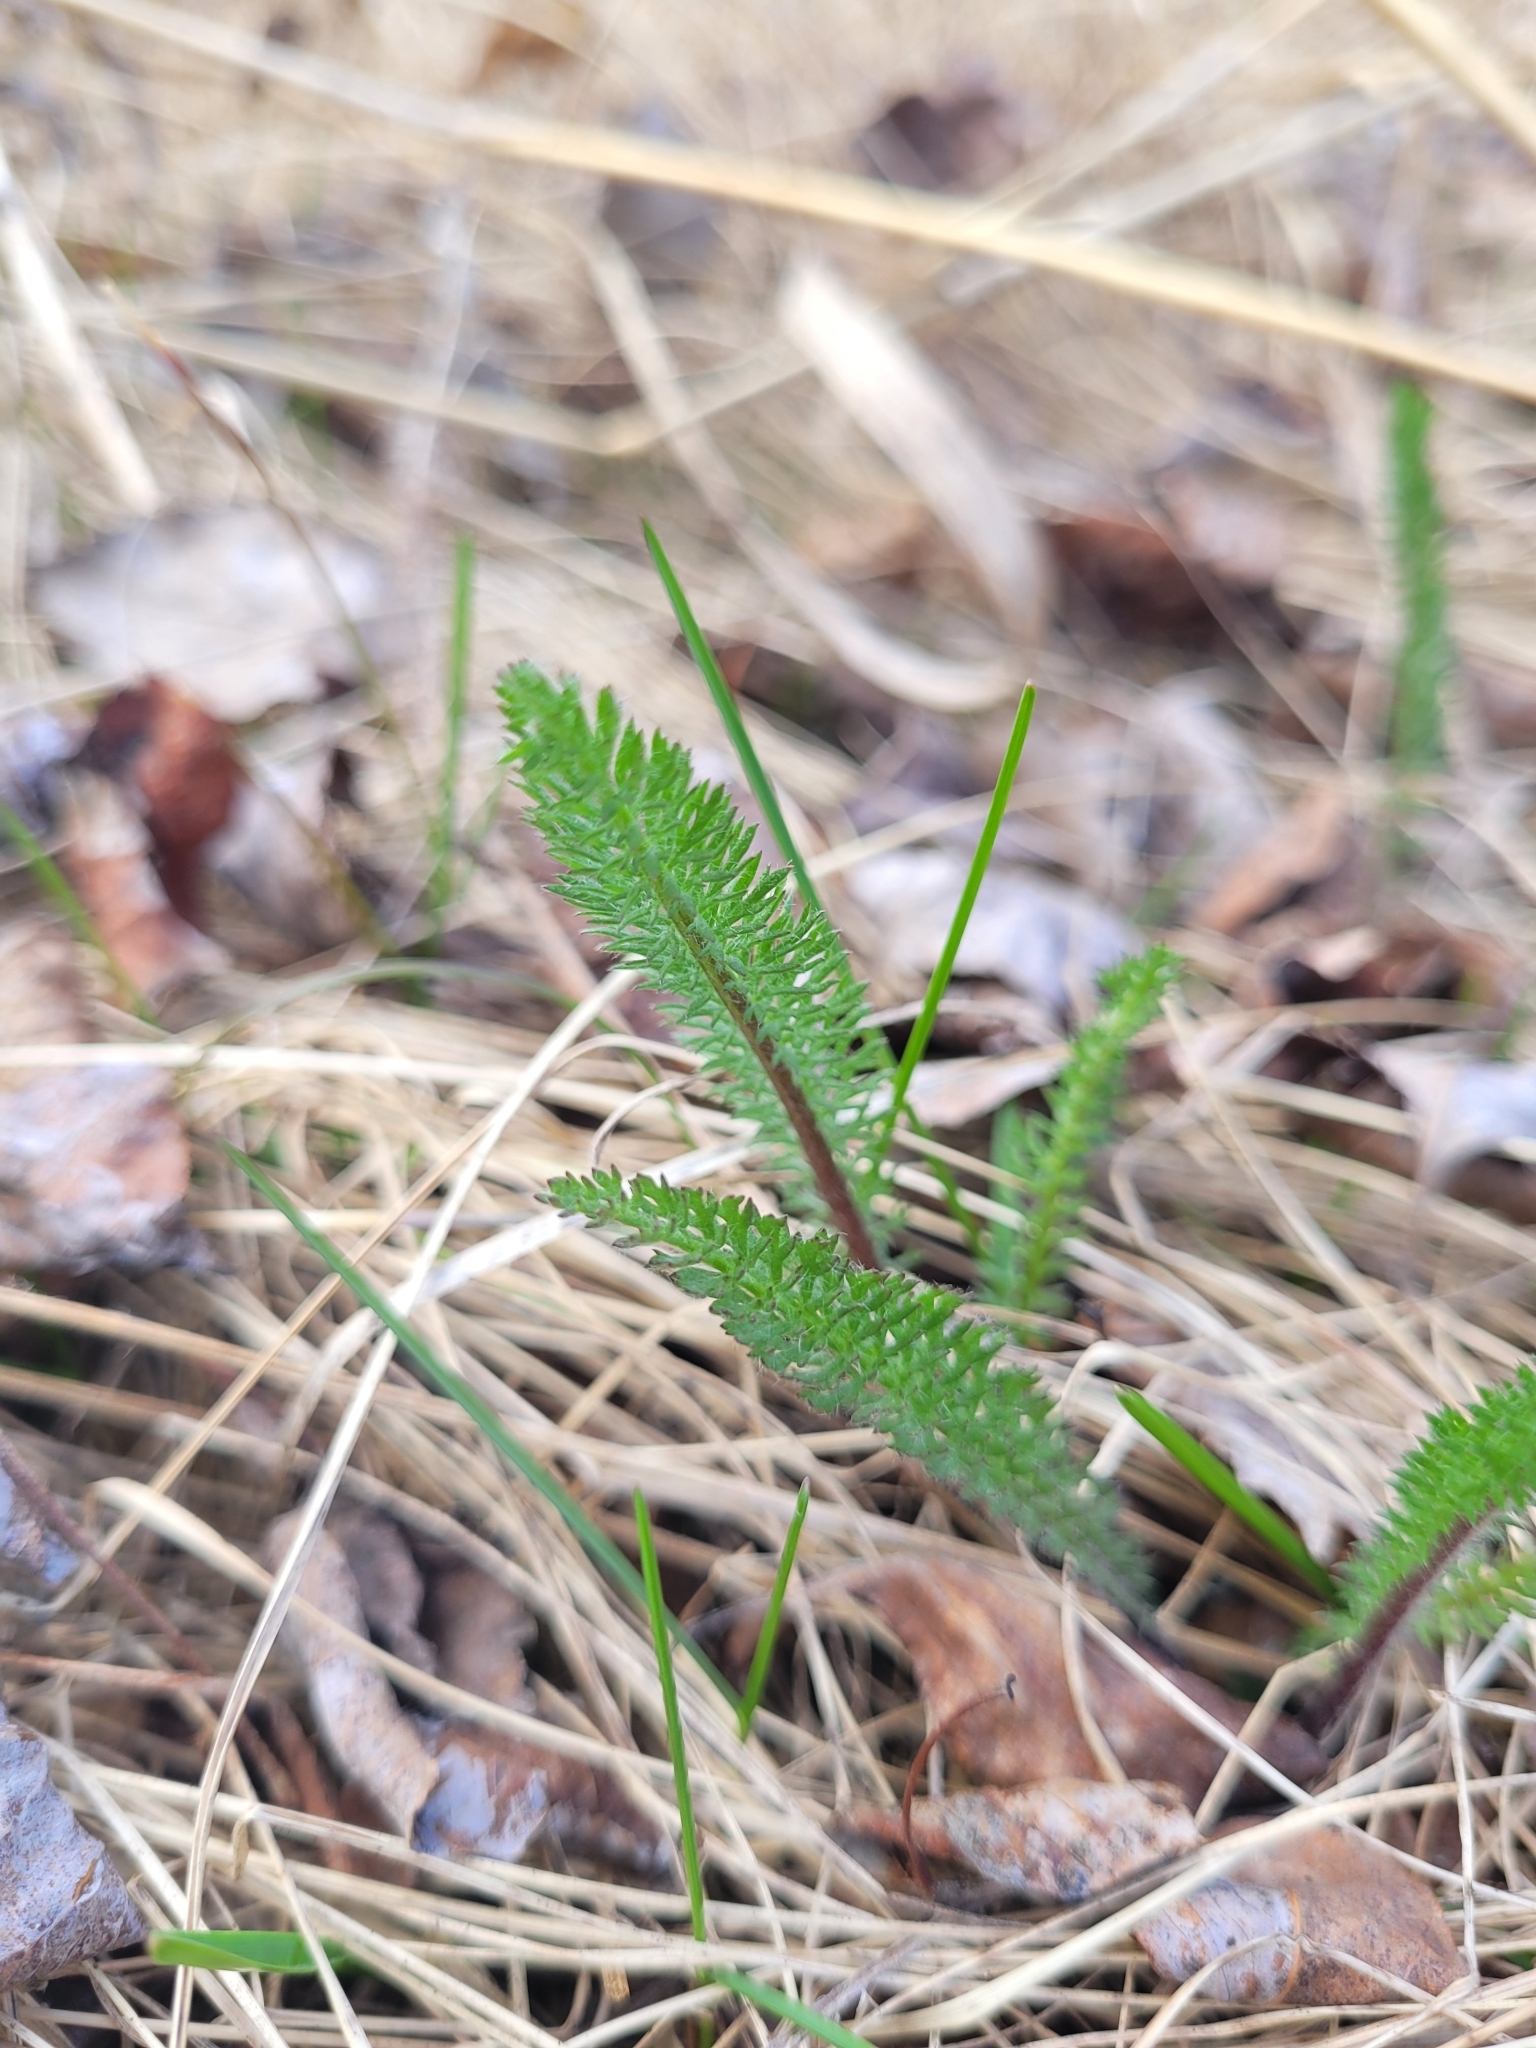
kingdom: Plantae
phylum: Tracheophyta
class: Magnoliopsida
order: Asterales
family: Asteraceae
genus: Achillea
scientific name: Achillea millefolium
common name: Yarrow
